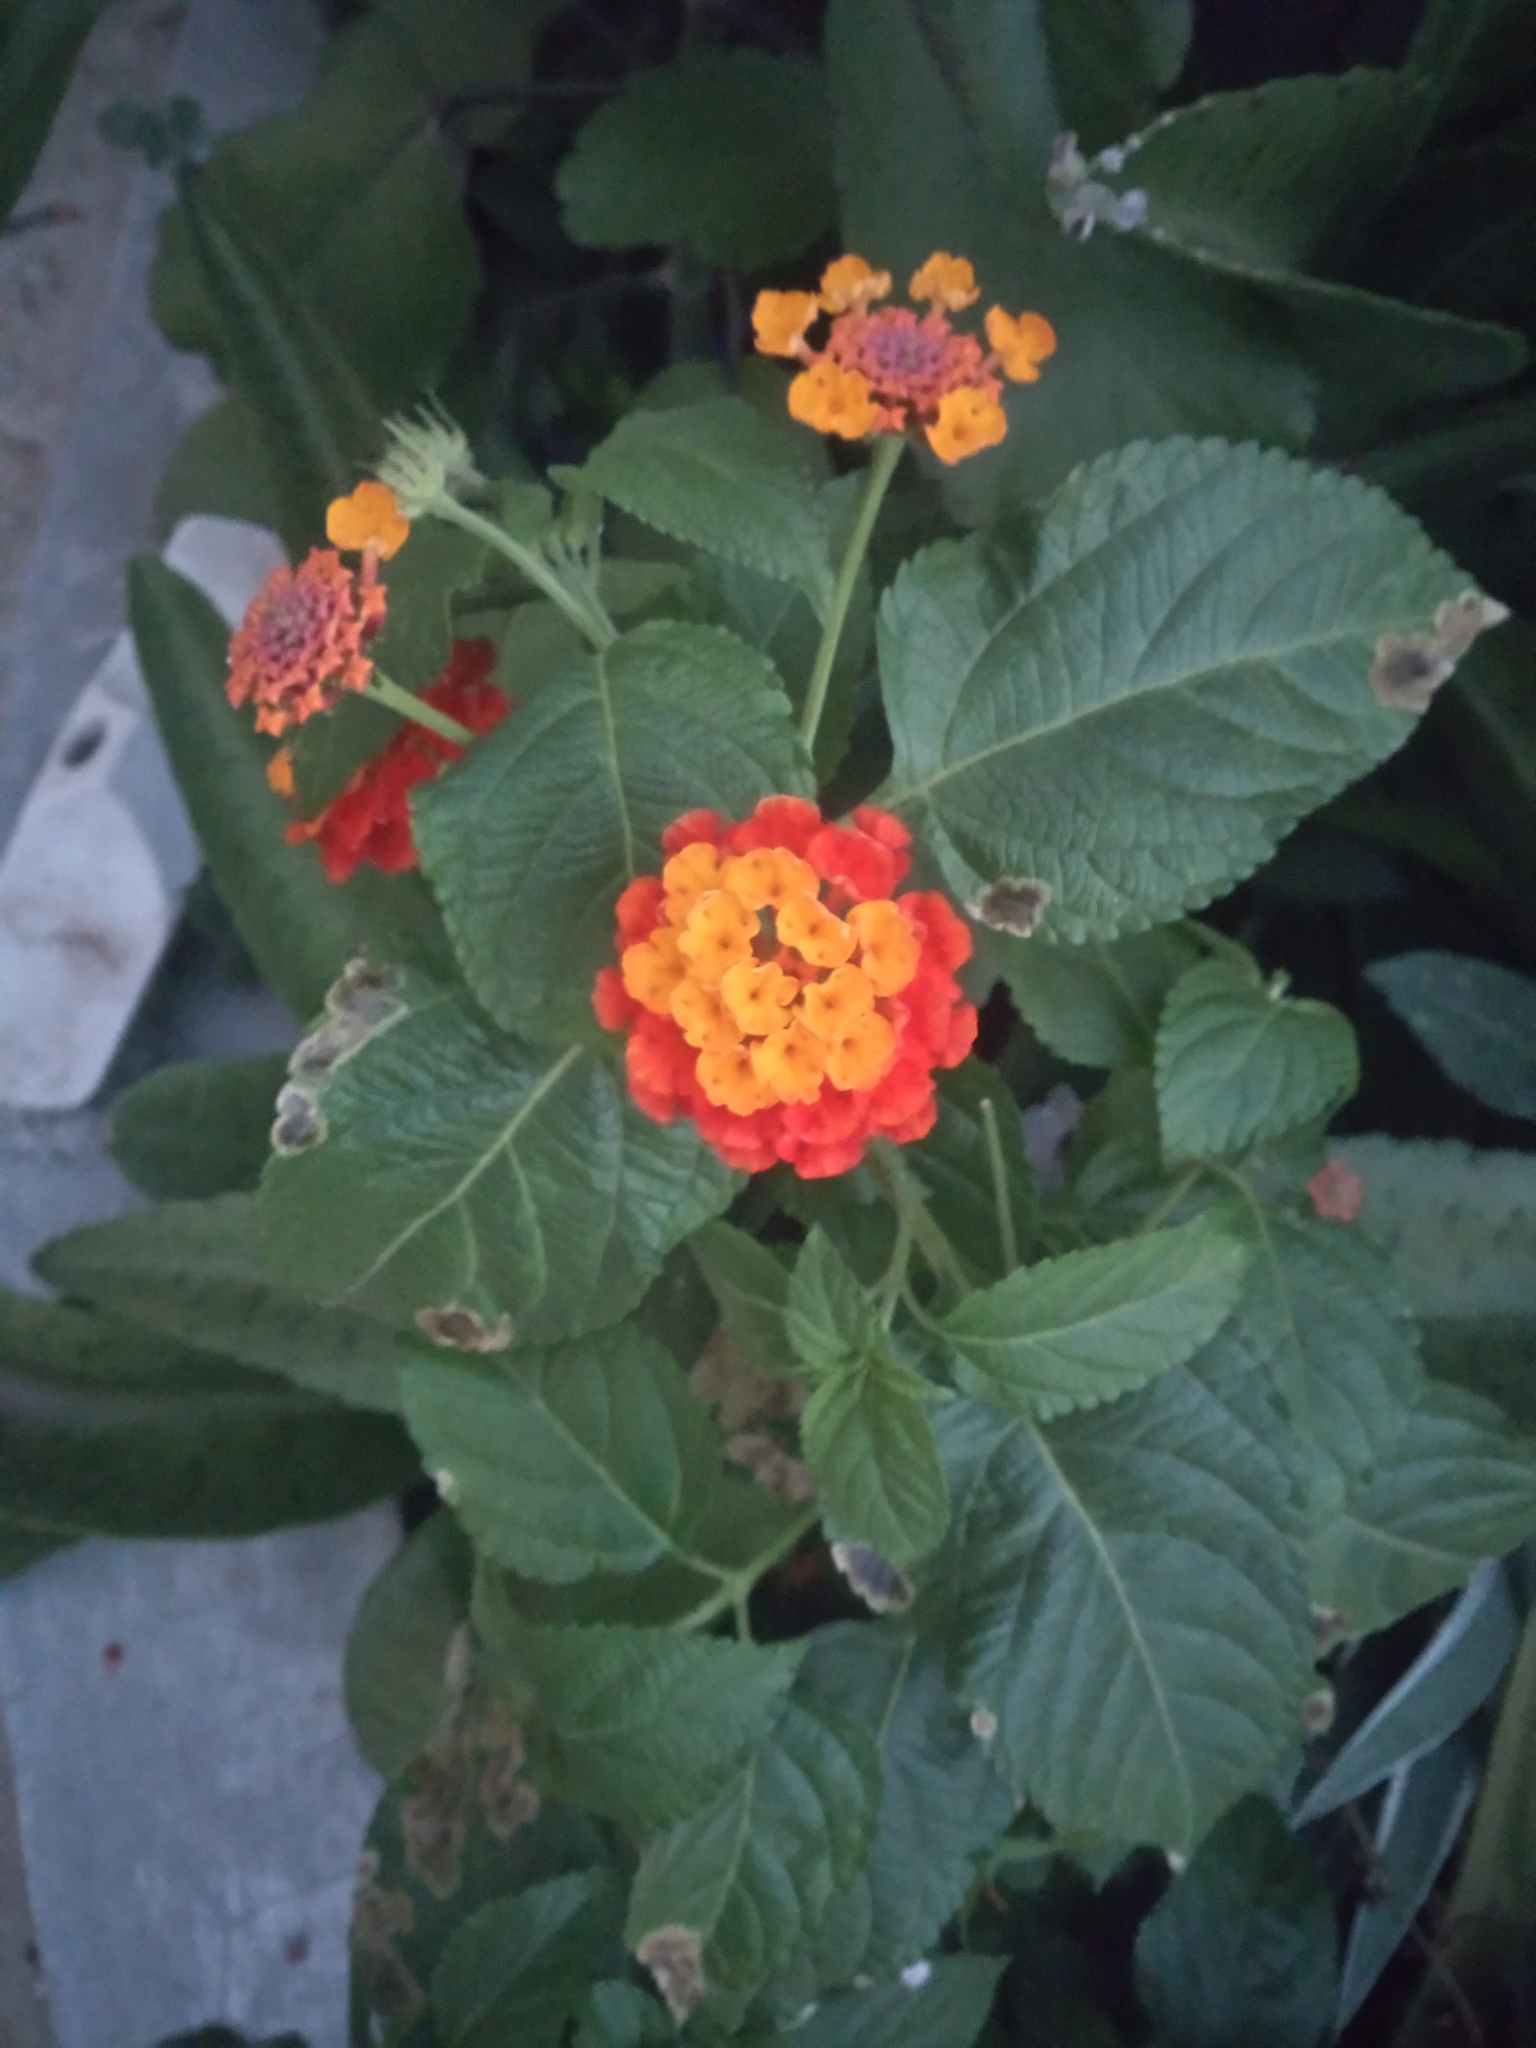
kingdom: Plantae
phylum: Tracheophyta
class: Magnoliopsida
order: Lamiales
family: Verbenaceae
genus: Lantana
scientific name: Lantana camara
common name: Lantana
